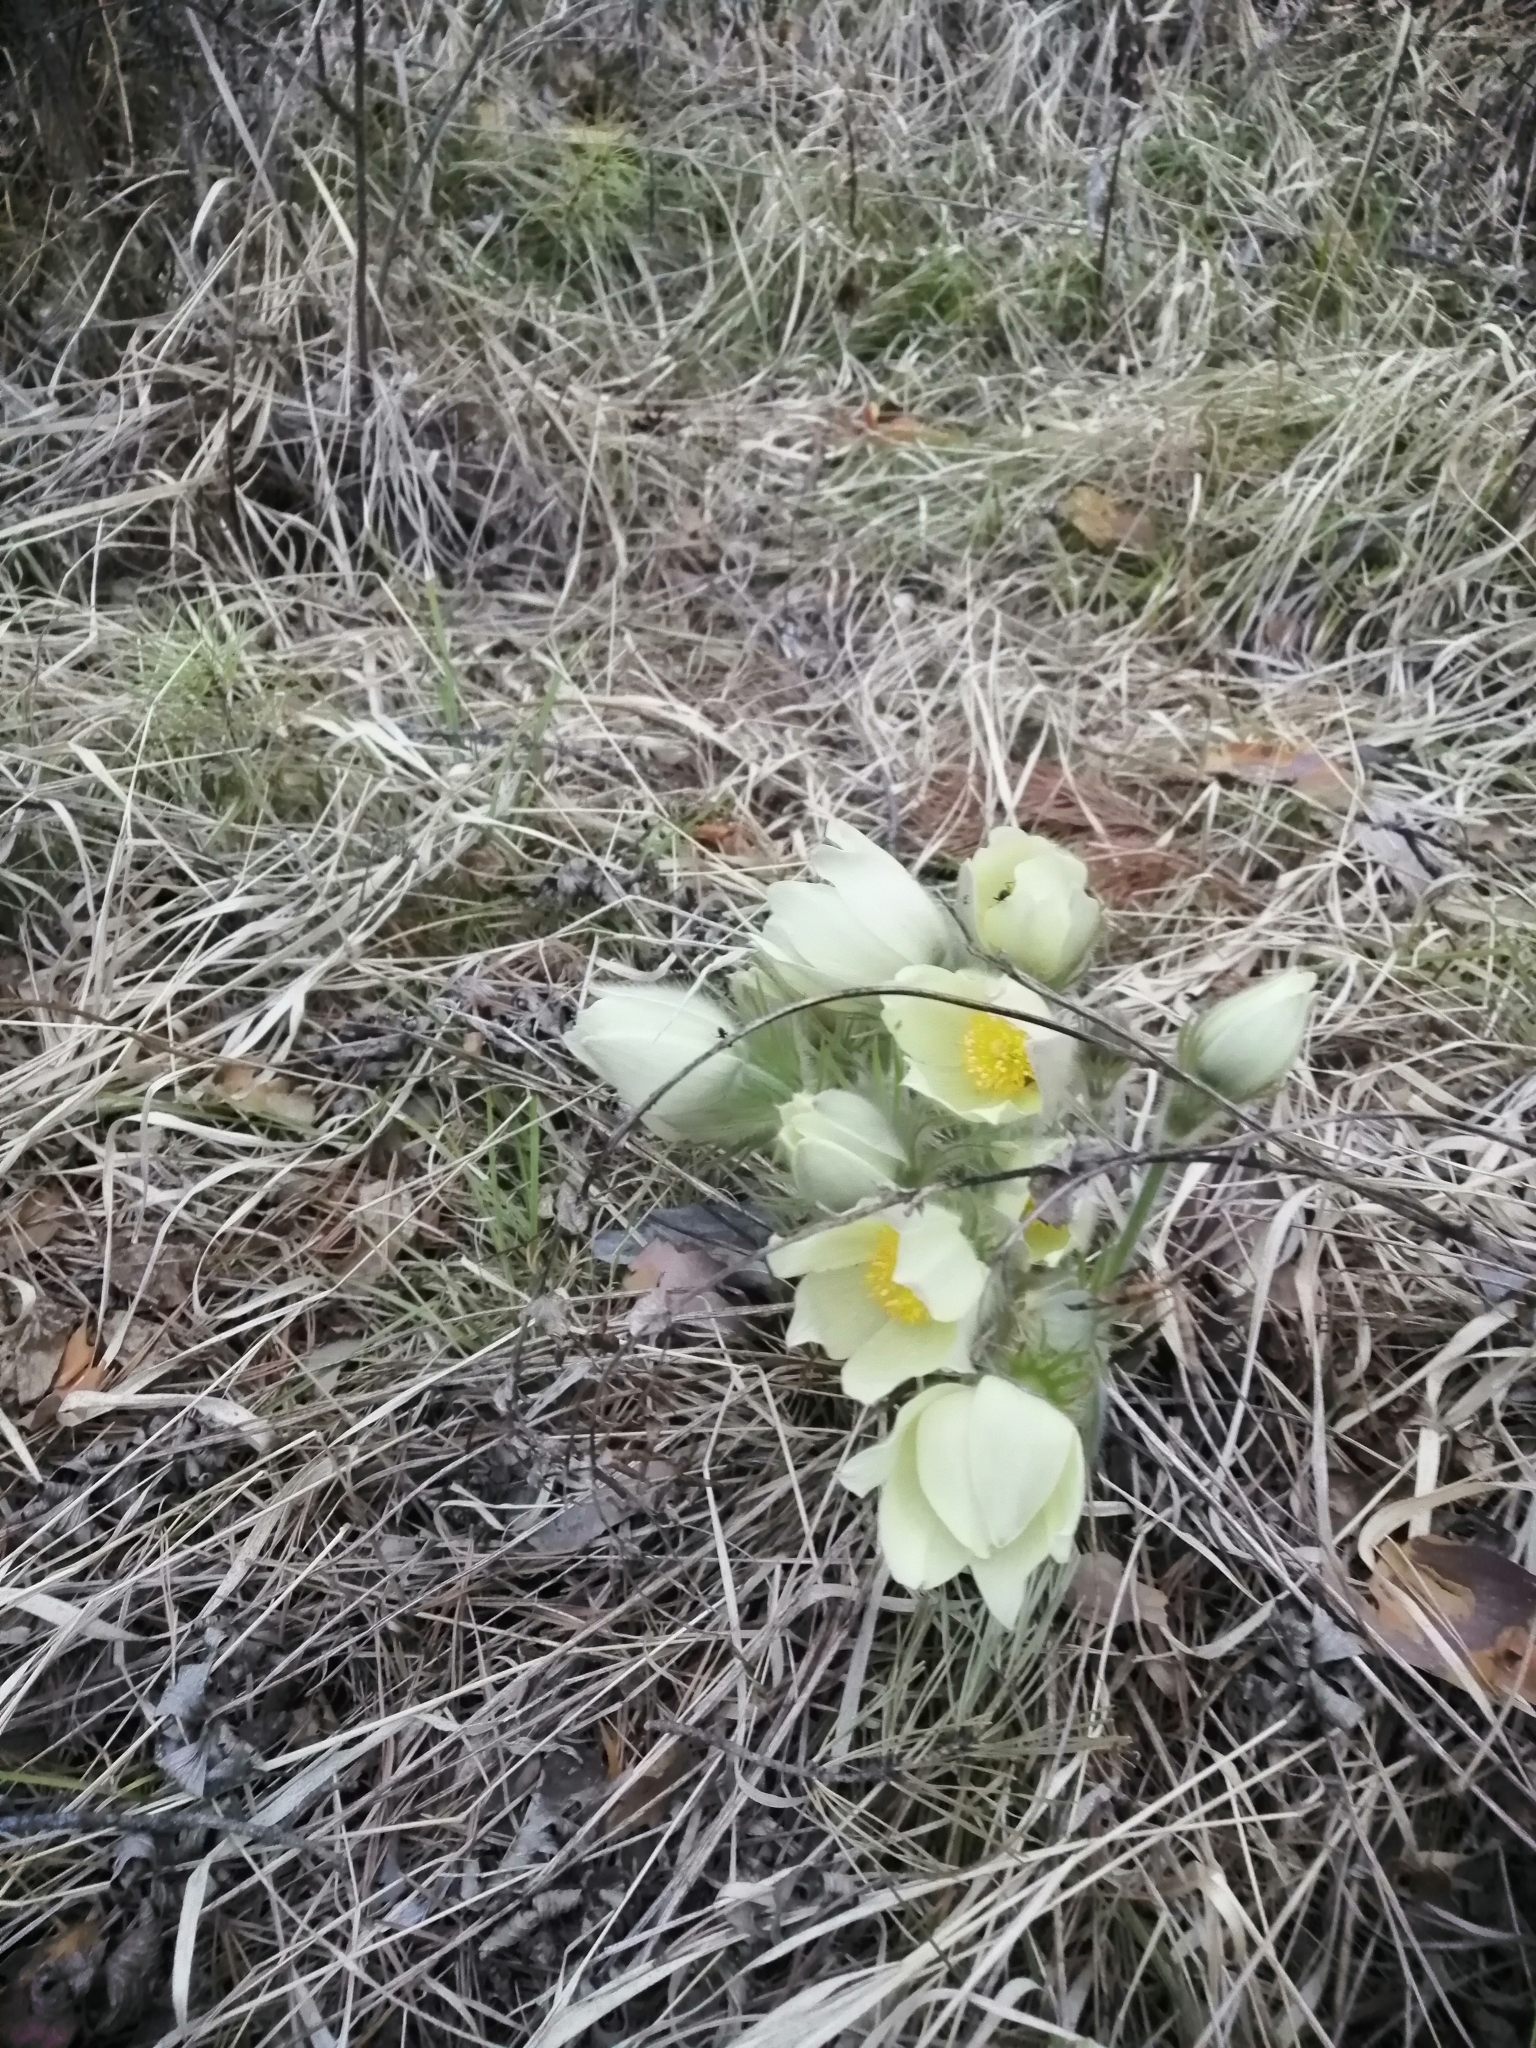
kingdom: Plantae
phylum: Tracheophyta
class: Magnoliopsida
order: Ranunculales
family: Ranunculaceae
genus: Pulsatilla
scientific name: Pulsatilla patens
